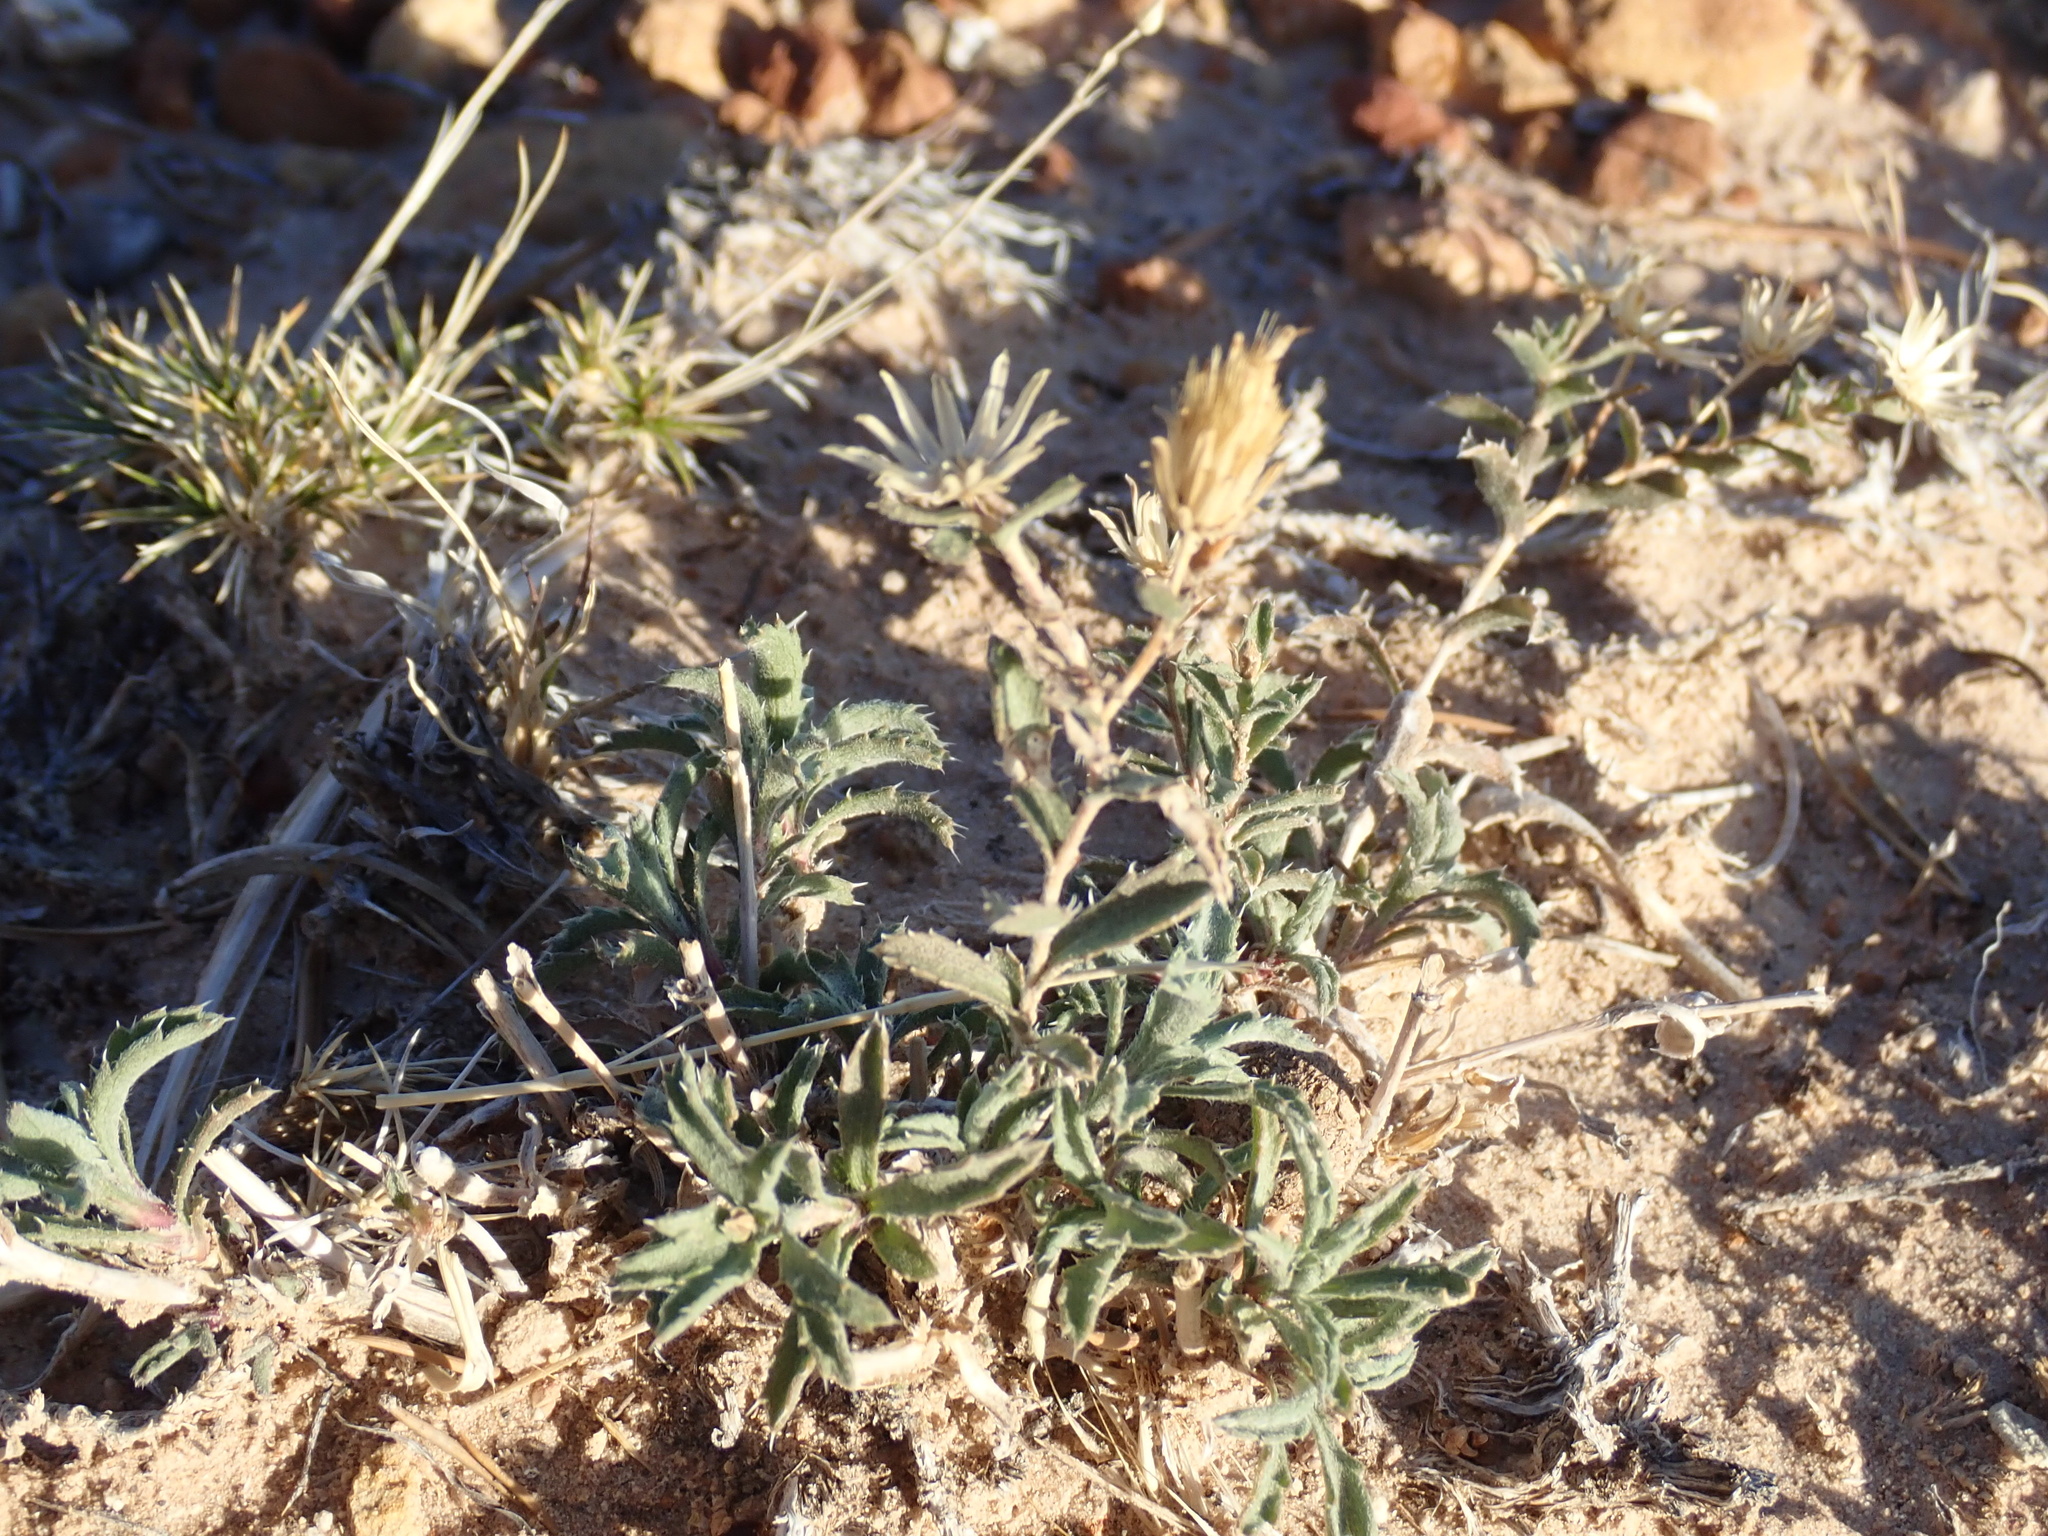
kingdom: Plantae
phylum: Tracheophyta
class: Magnoliopsida
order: Asterales
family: Asteraceae
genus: Xanthisma
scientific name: Xanthisma grindelioides
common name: Goldenweed
